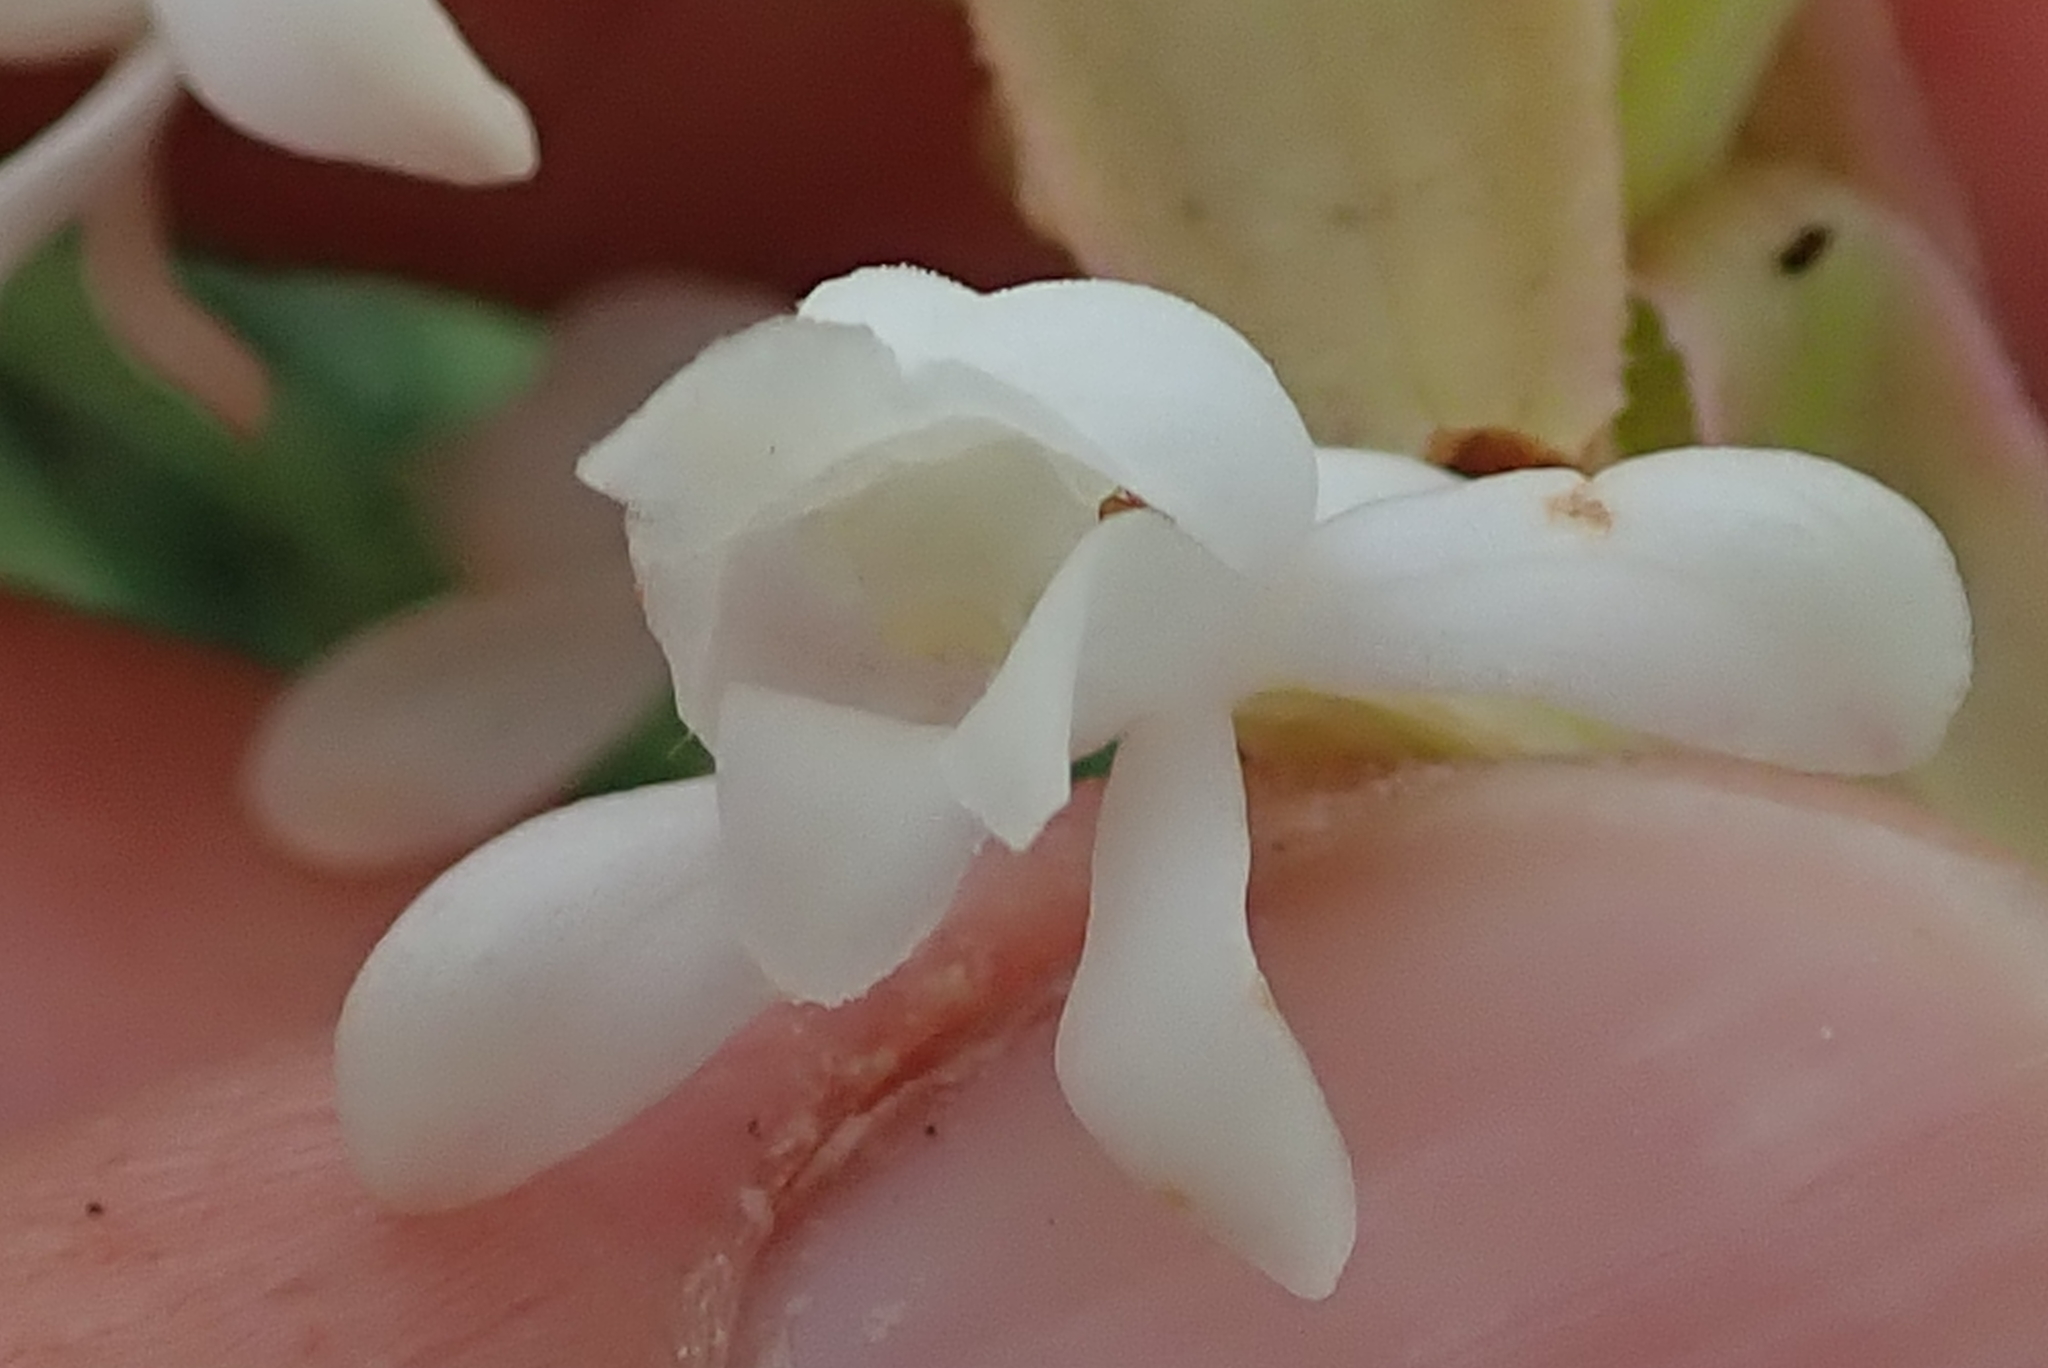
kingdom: Plantae
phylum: Tracheophyta
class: Liliopsida
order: Asparagales
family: Orchidaceae
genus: Satyrium
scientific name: Satyrium longicauda
